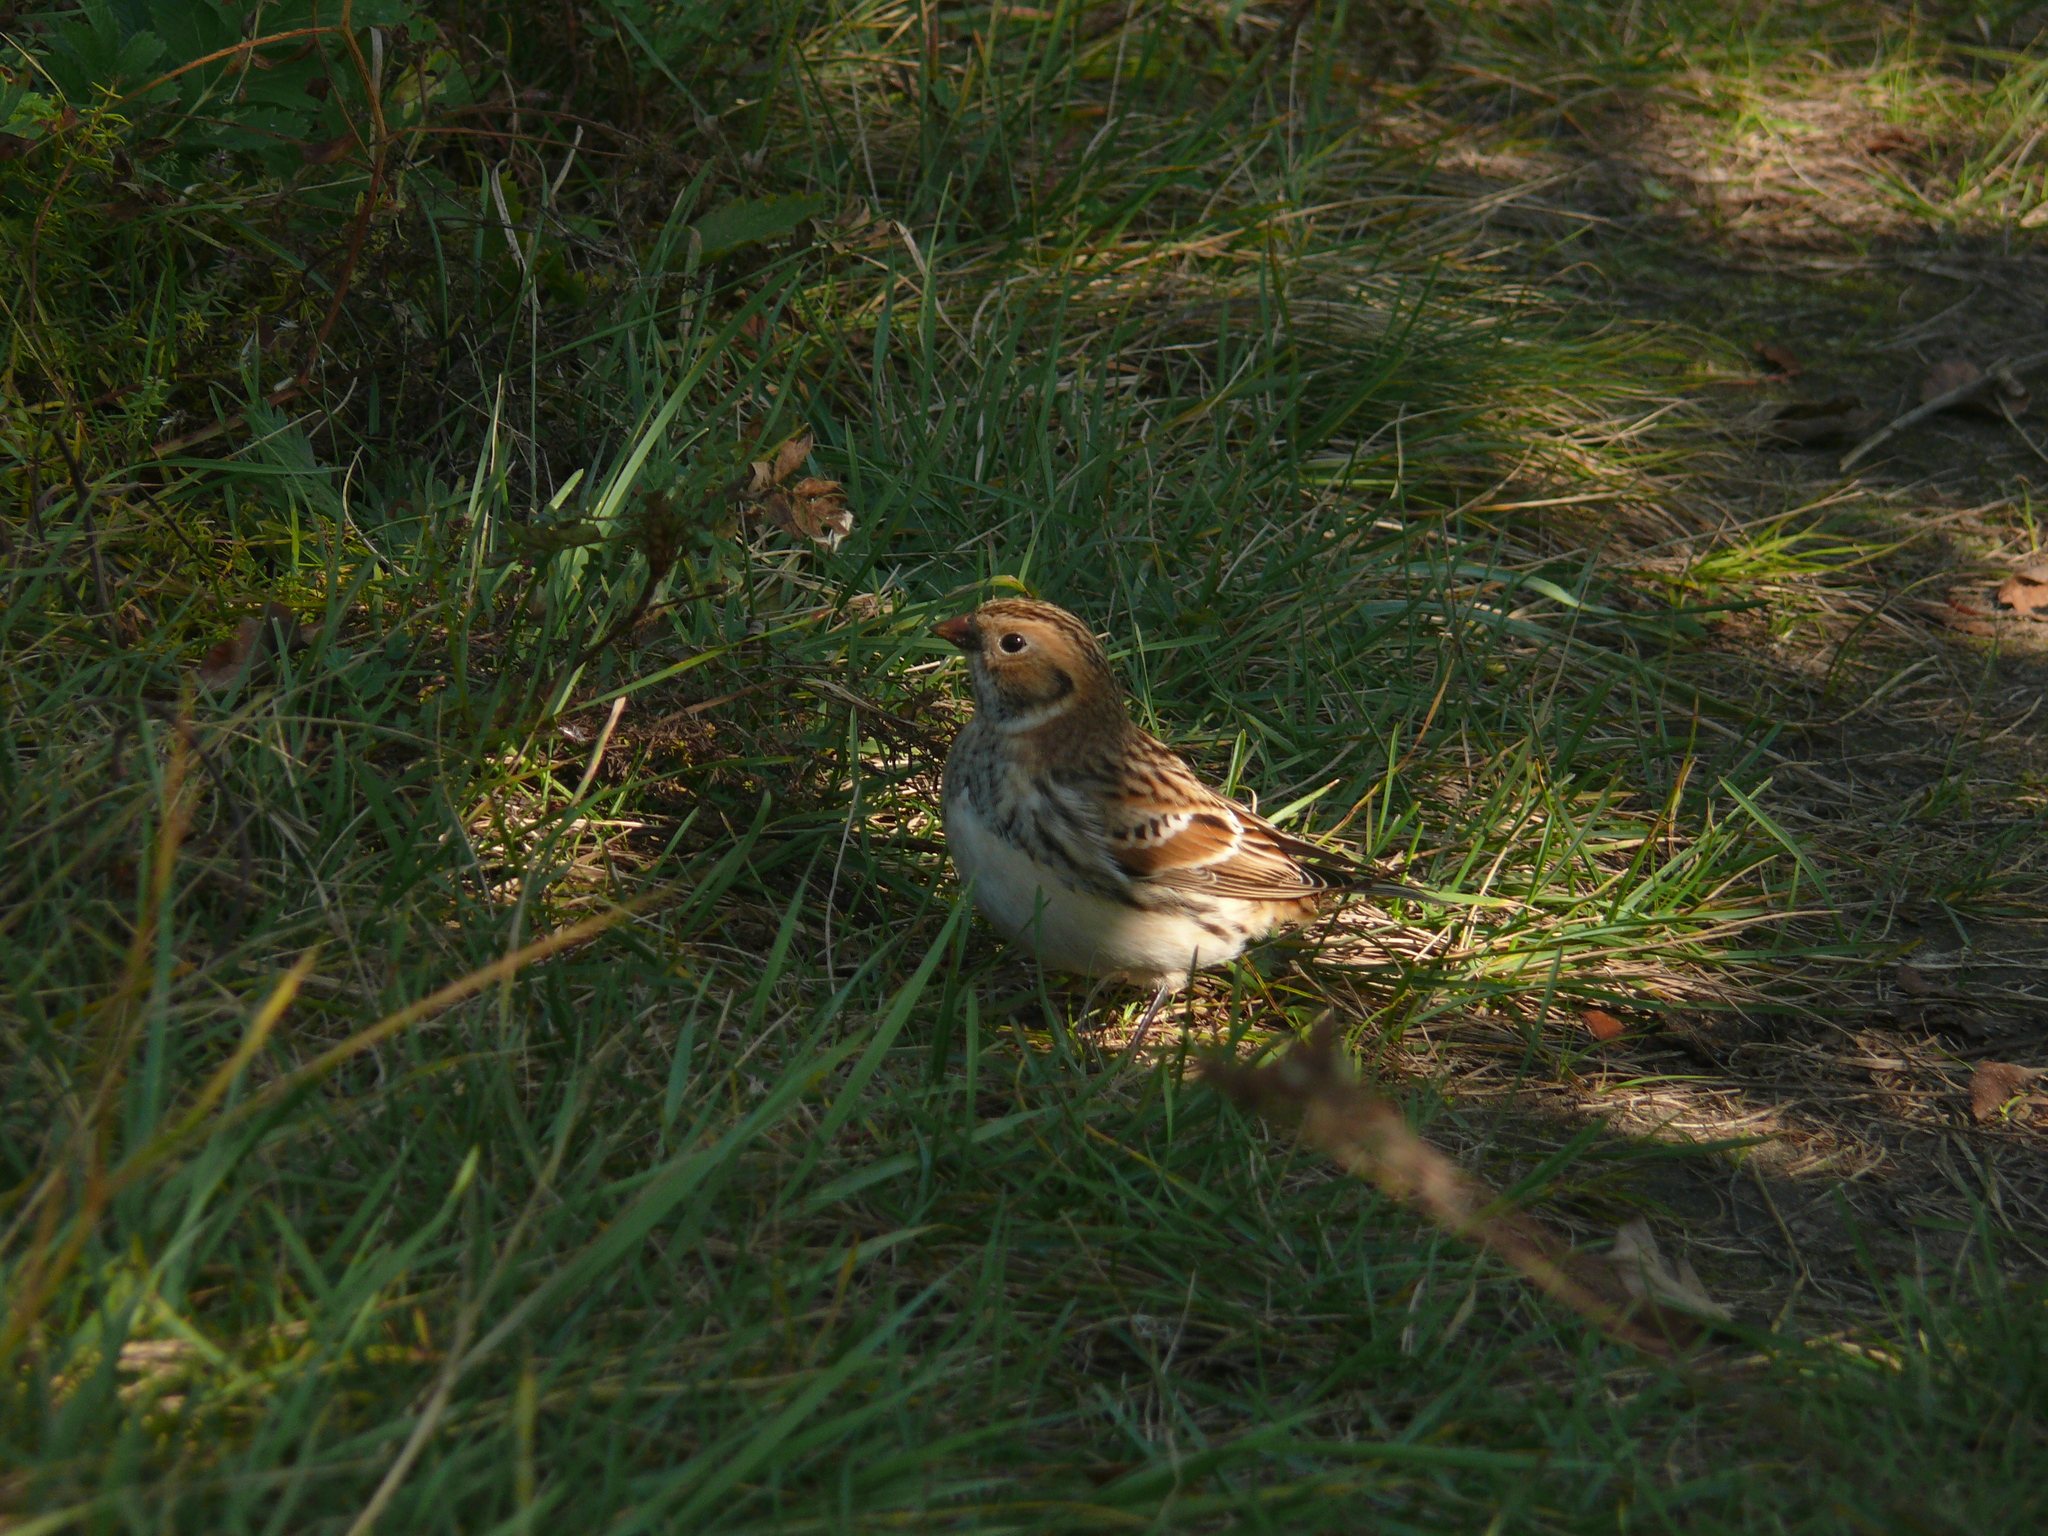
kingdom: Animalia
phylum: Chordata
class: Aves
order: Passeriformes
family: Calcariidae
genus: Calcarius
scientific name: Calcarius lapponicus
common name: Lapland longspur
